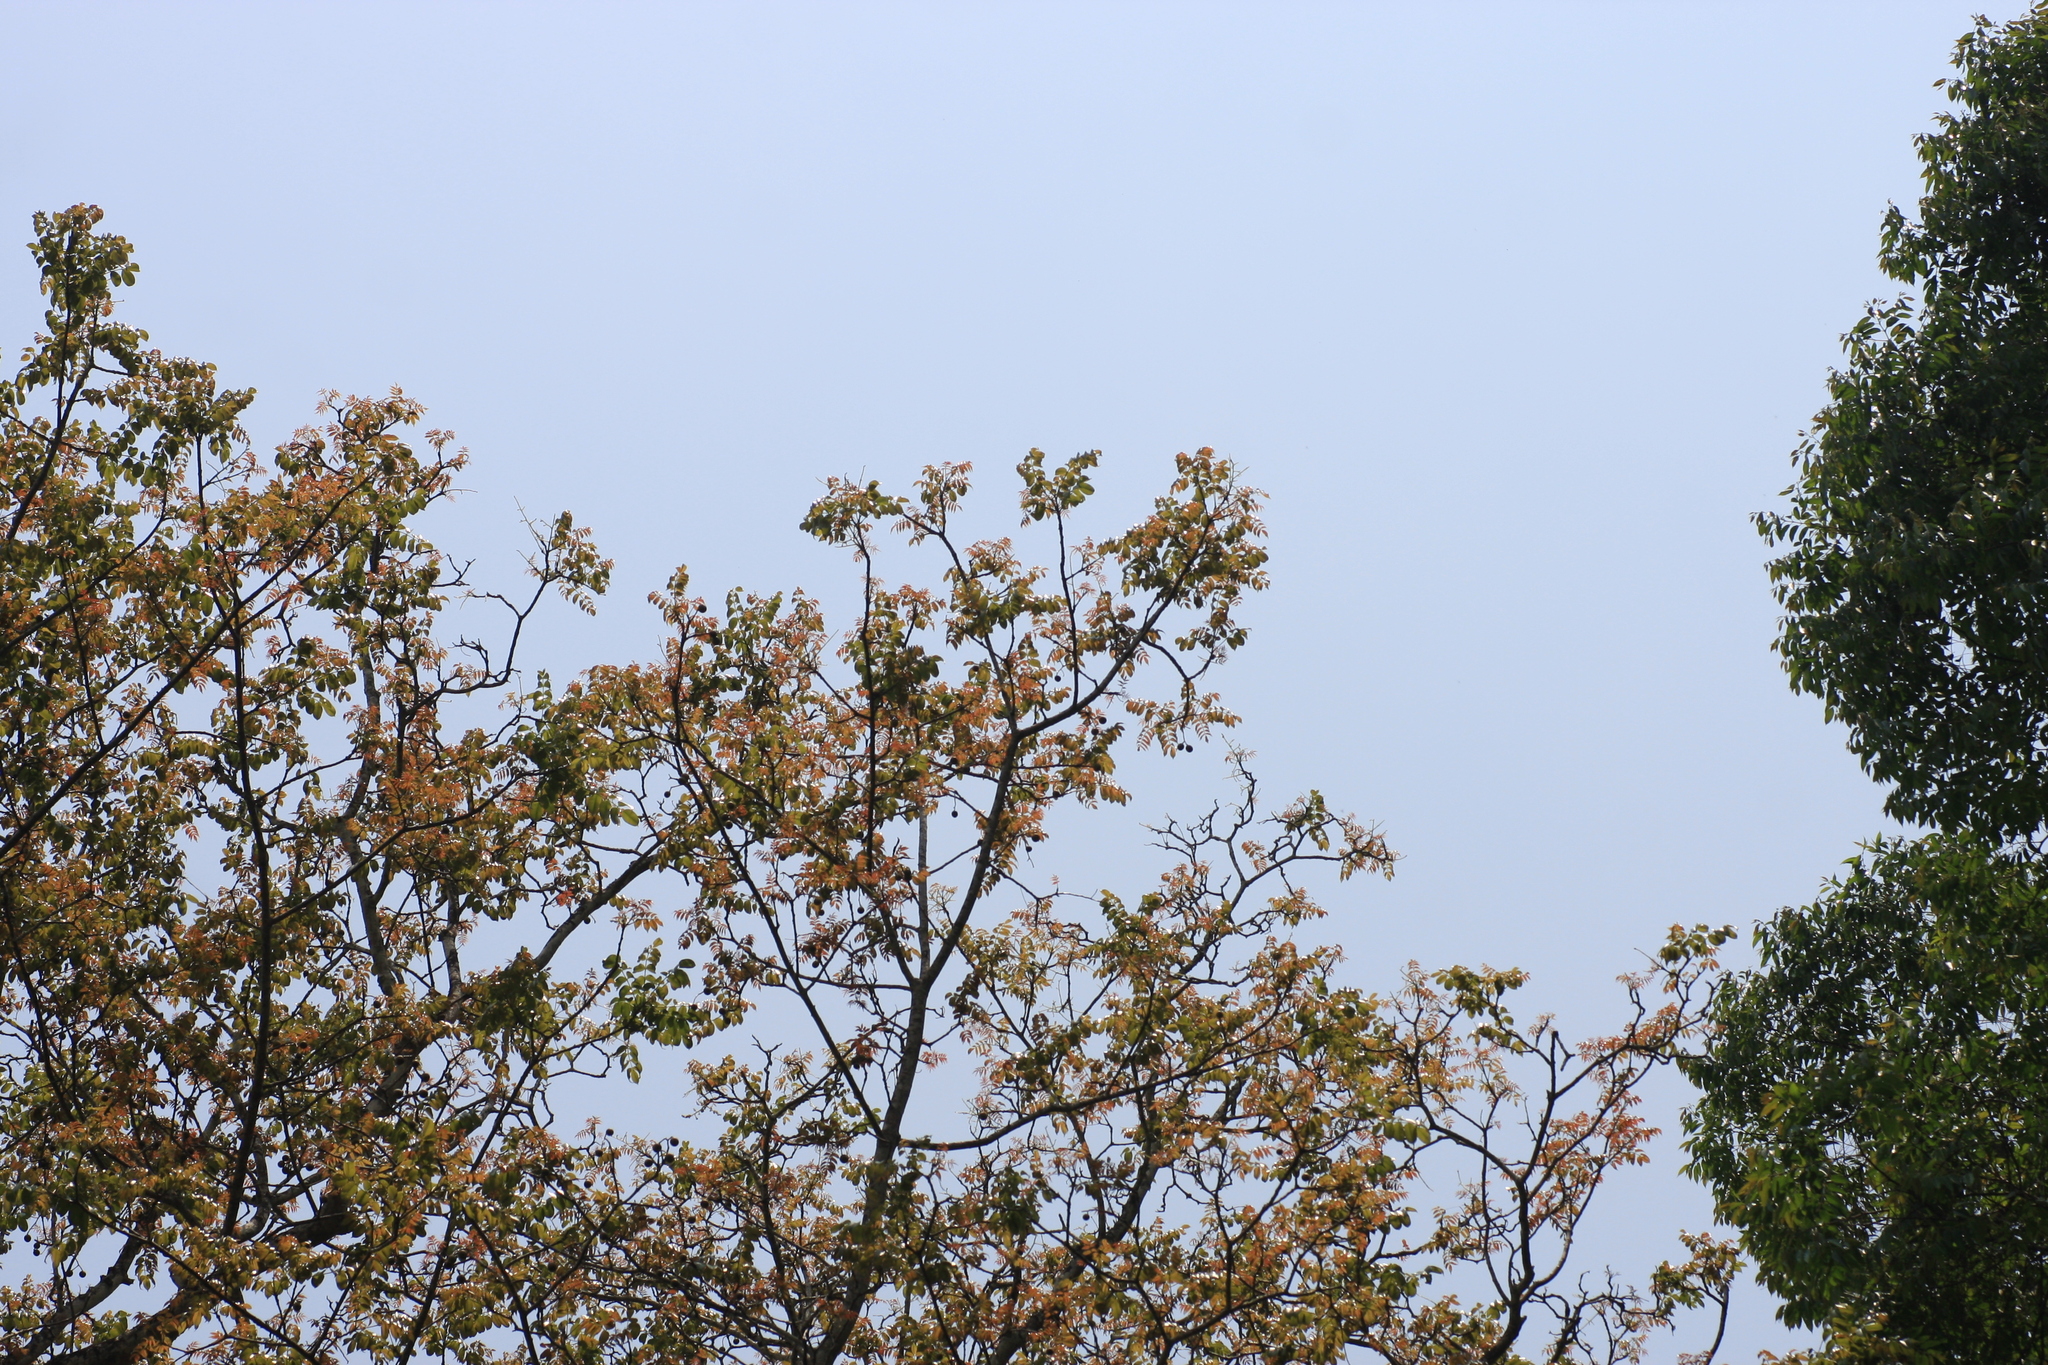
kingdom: Plantae
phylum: Tracheophyta
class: Magnoliopsida
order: Sapindales
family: Anacardiaceae
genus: Spondias
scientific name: Spondias pinnata
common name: Common hog-plum
